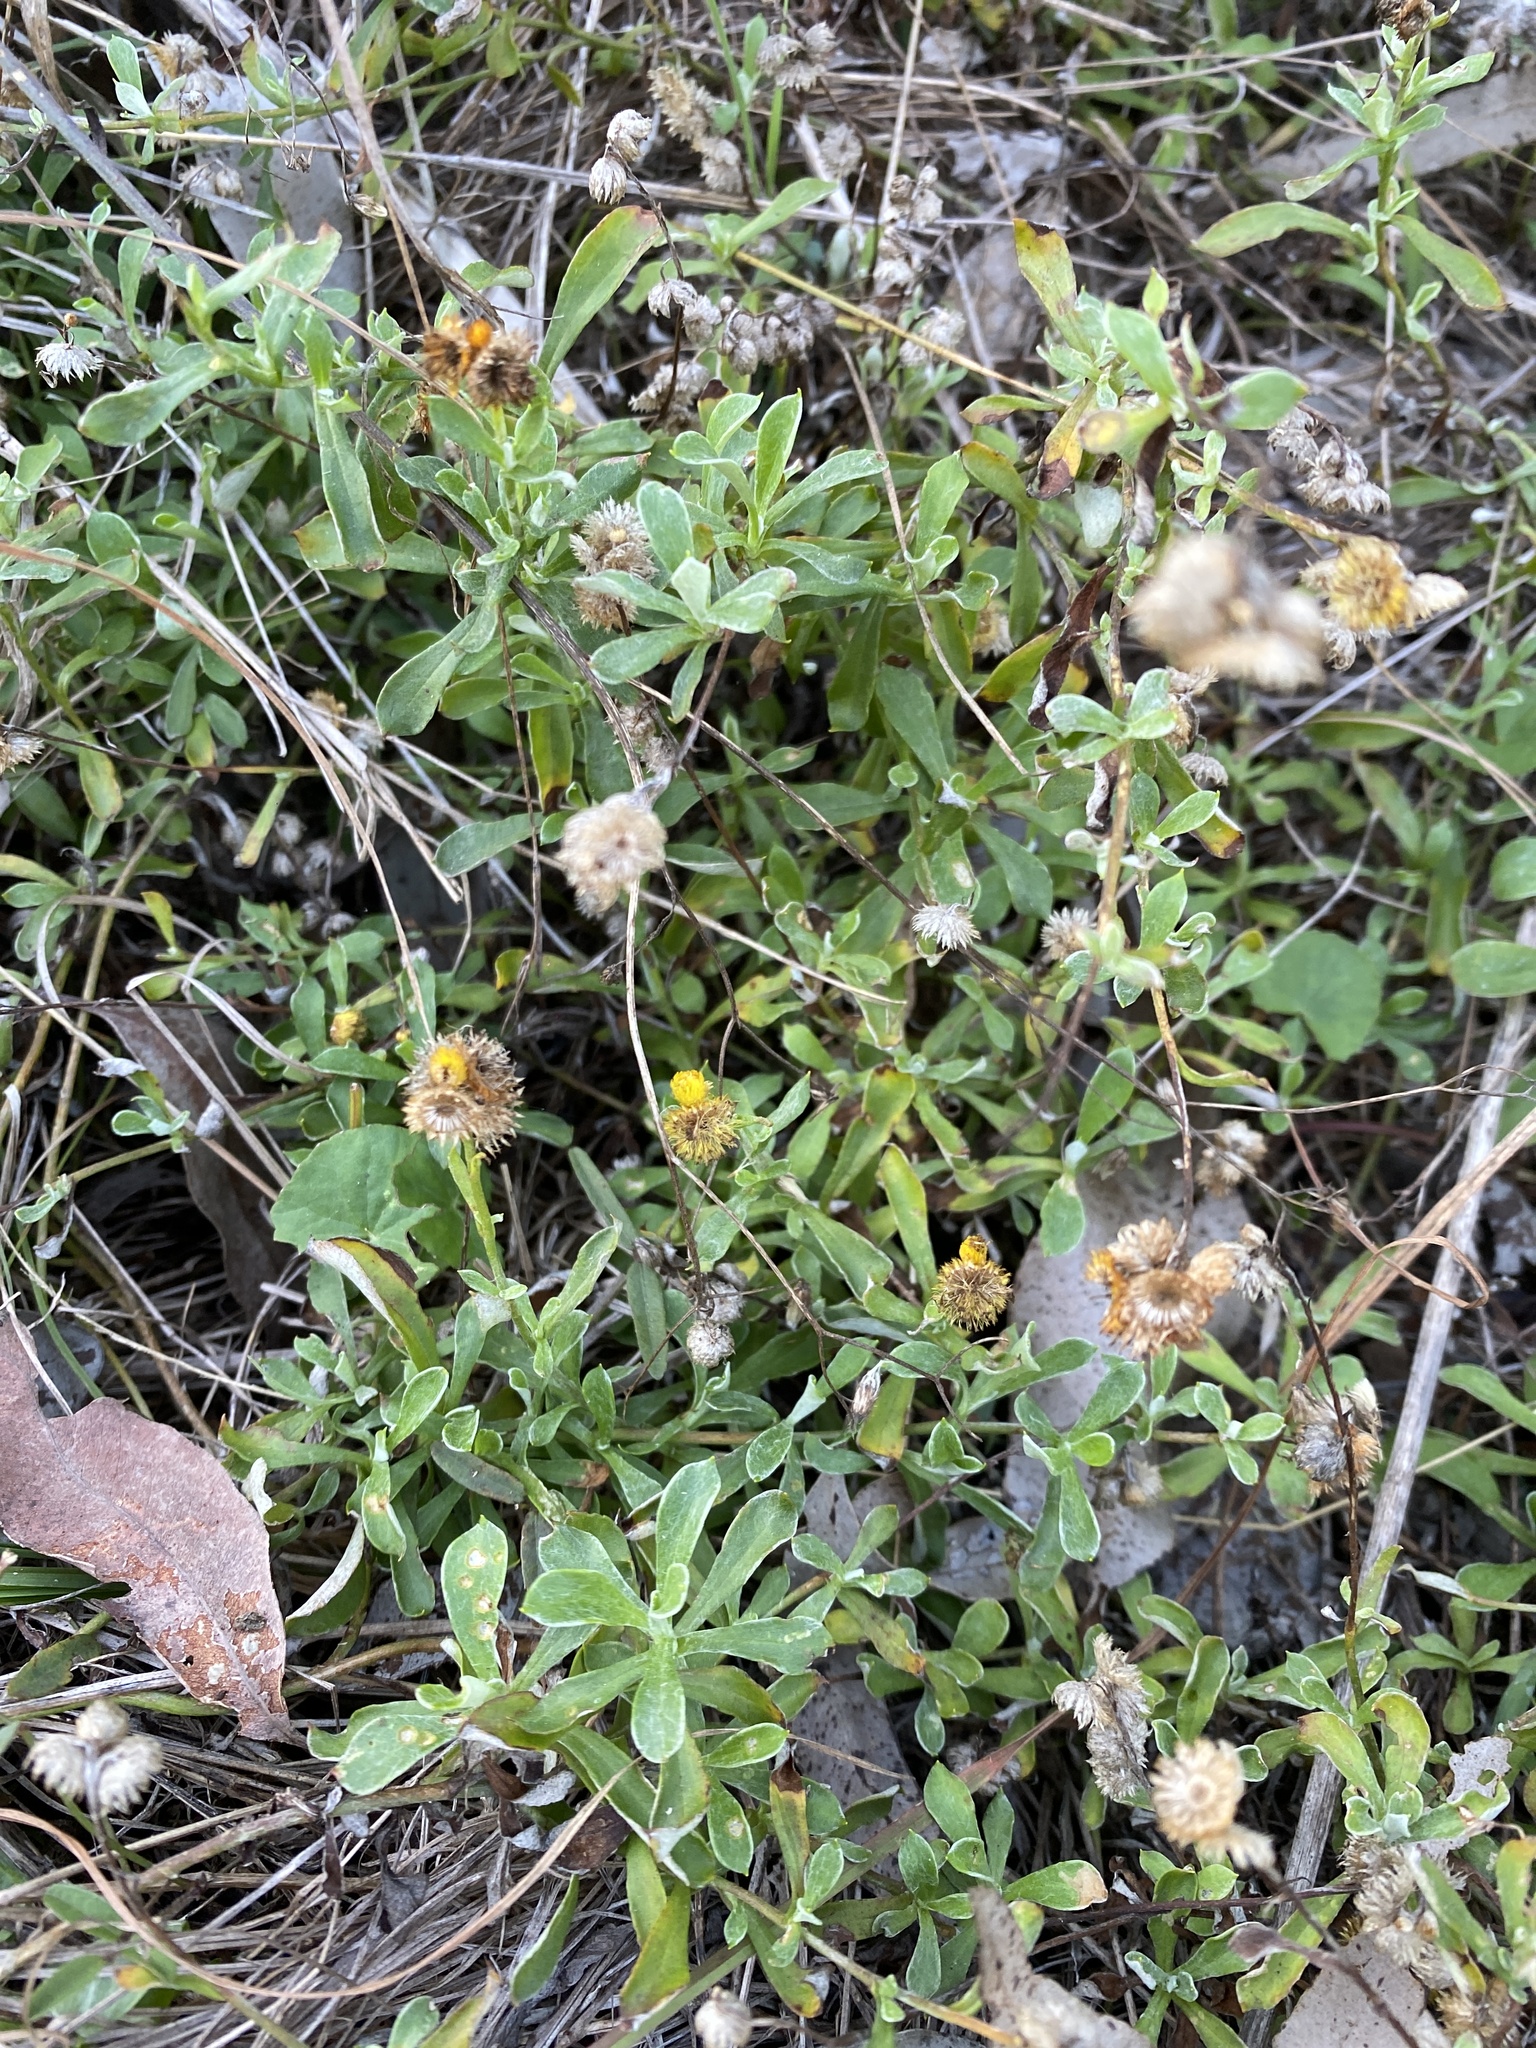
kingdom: Plantae
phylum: Tracheophyta
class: Magnoliopsida
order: Asterales
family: Asteraceae
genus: Chrysocephalum
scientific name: Chrysocephalum apiculatum
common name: Common everlasting
